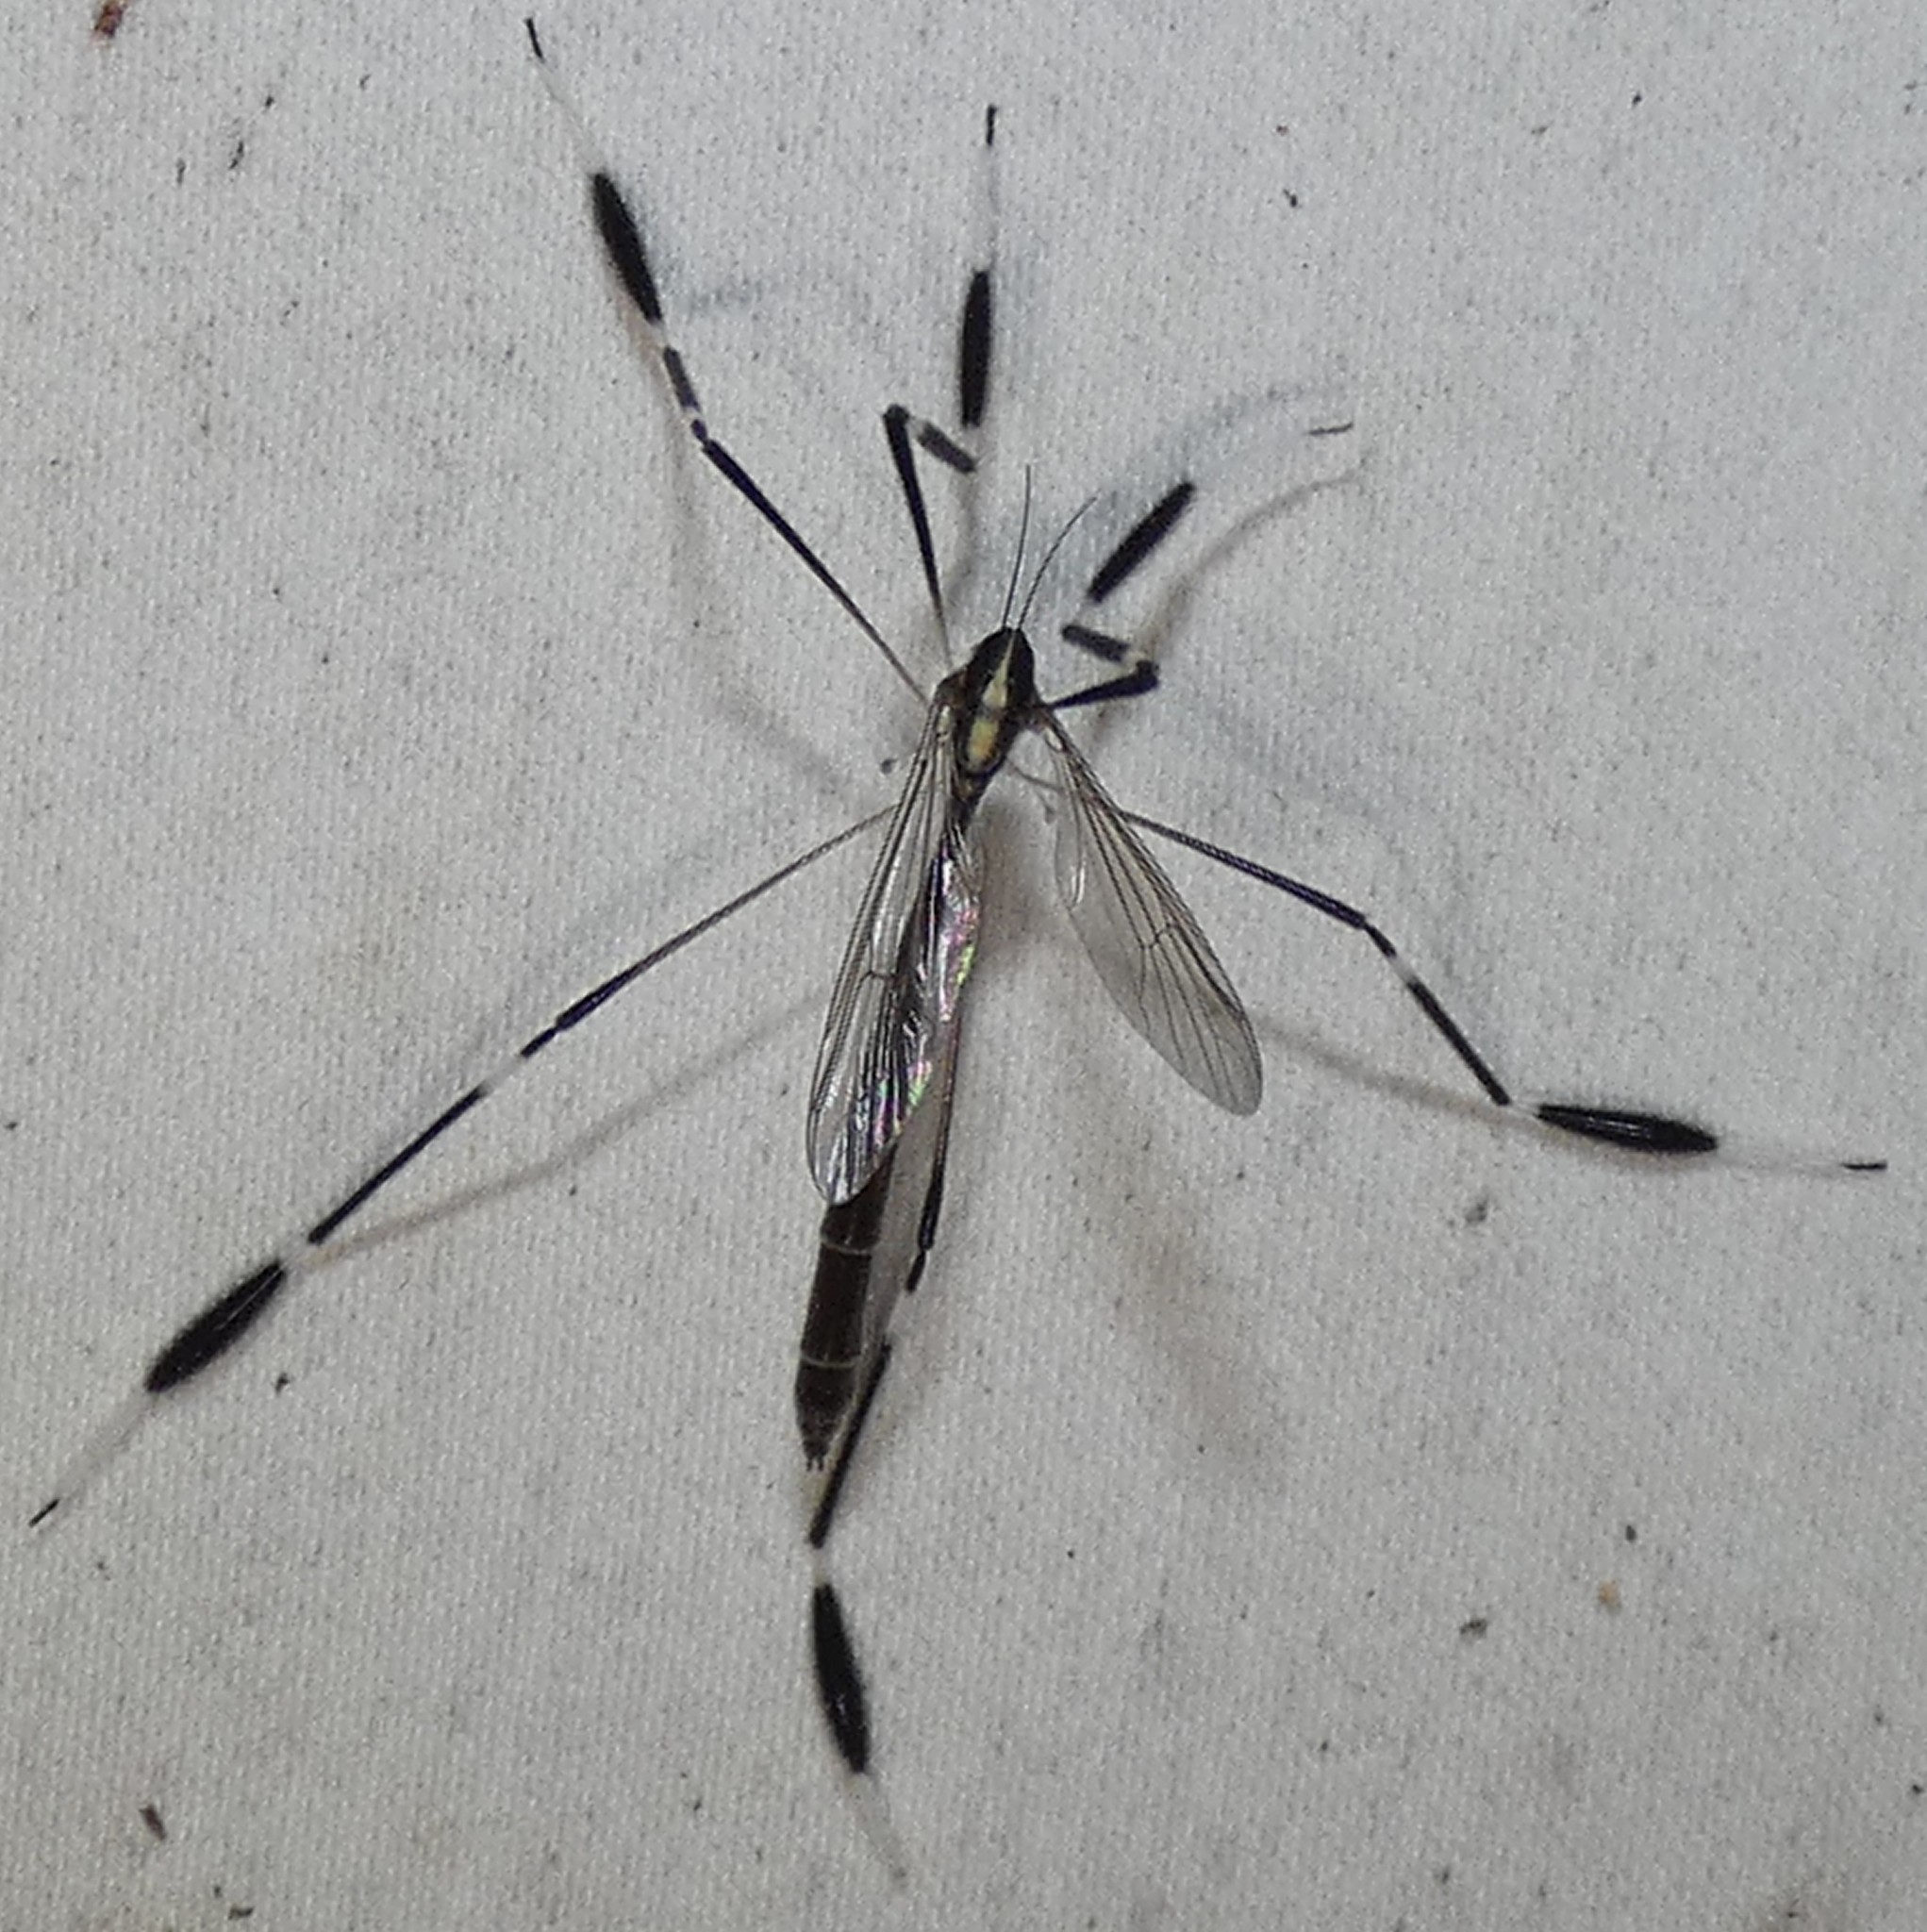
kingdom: Animalia
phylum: Arthropoda
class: Insecta
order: Diptera
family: Ptychopteridae
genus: Bittacomorpha
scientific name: Bittacomorpha clavipes
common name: Eastern phantom crane fly
